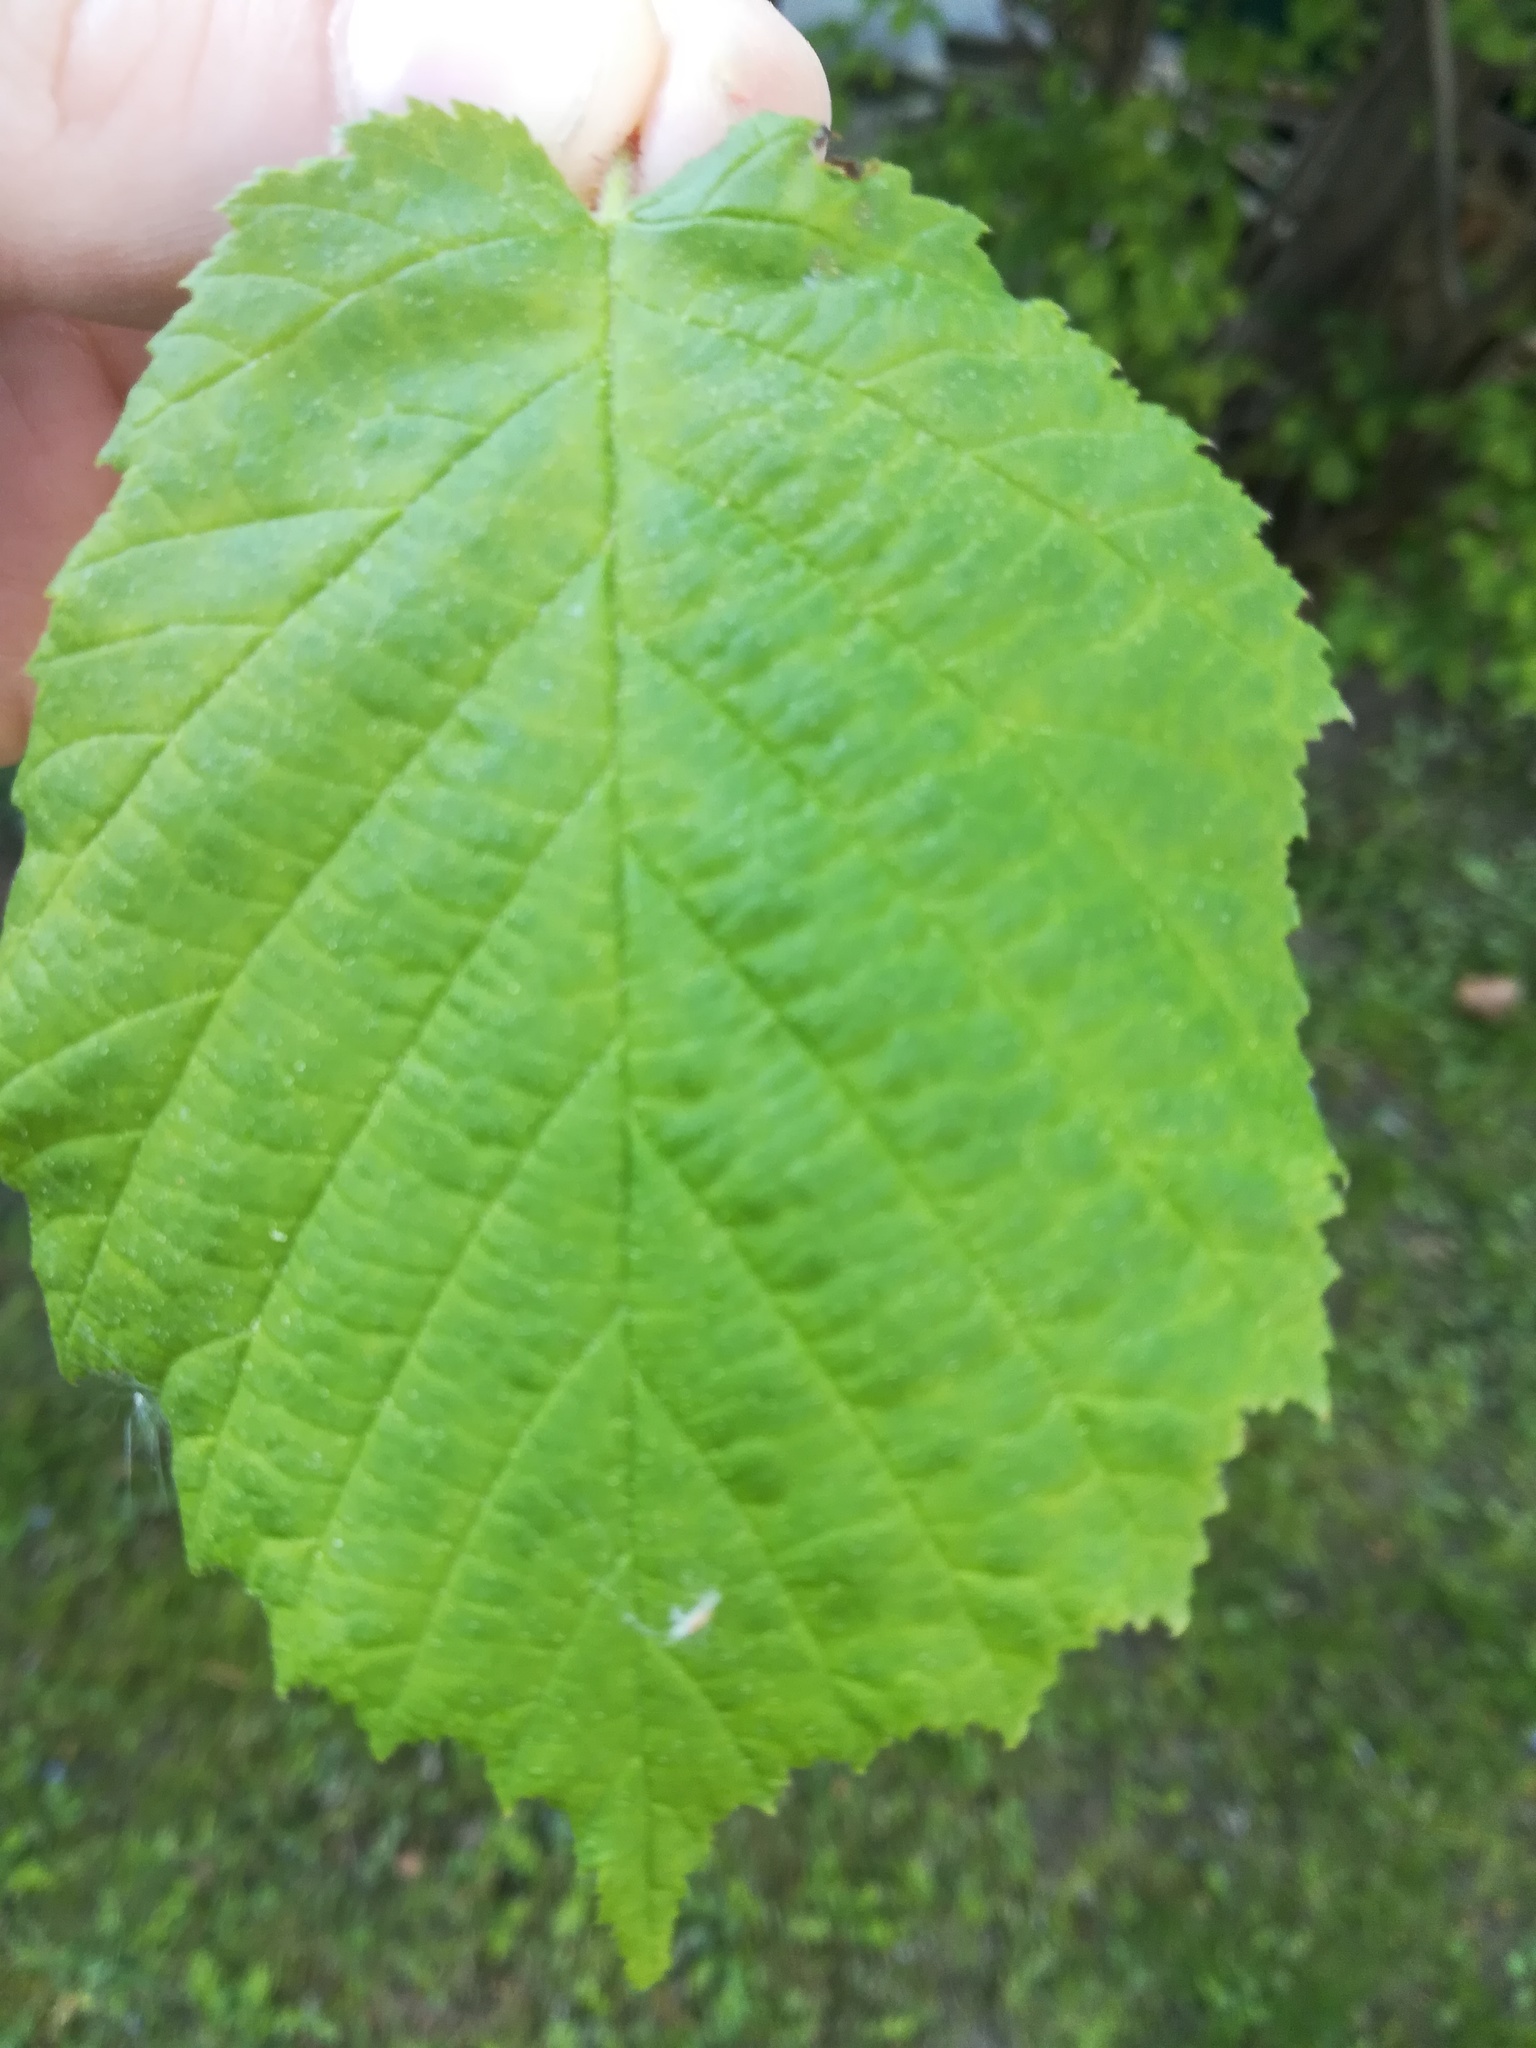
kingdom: Plantae
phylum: Tracheophyta
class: Magnoliopsida
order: Fagales
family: Betulaceae
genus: Corylus
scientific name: Corylus avellana
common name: European hazel
